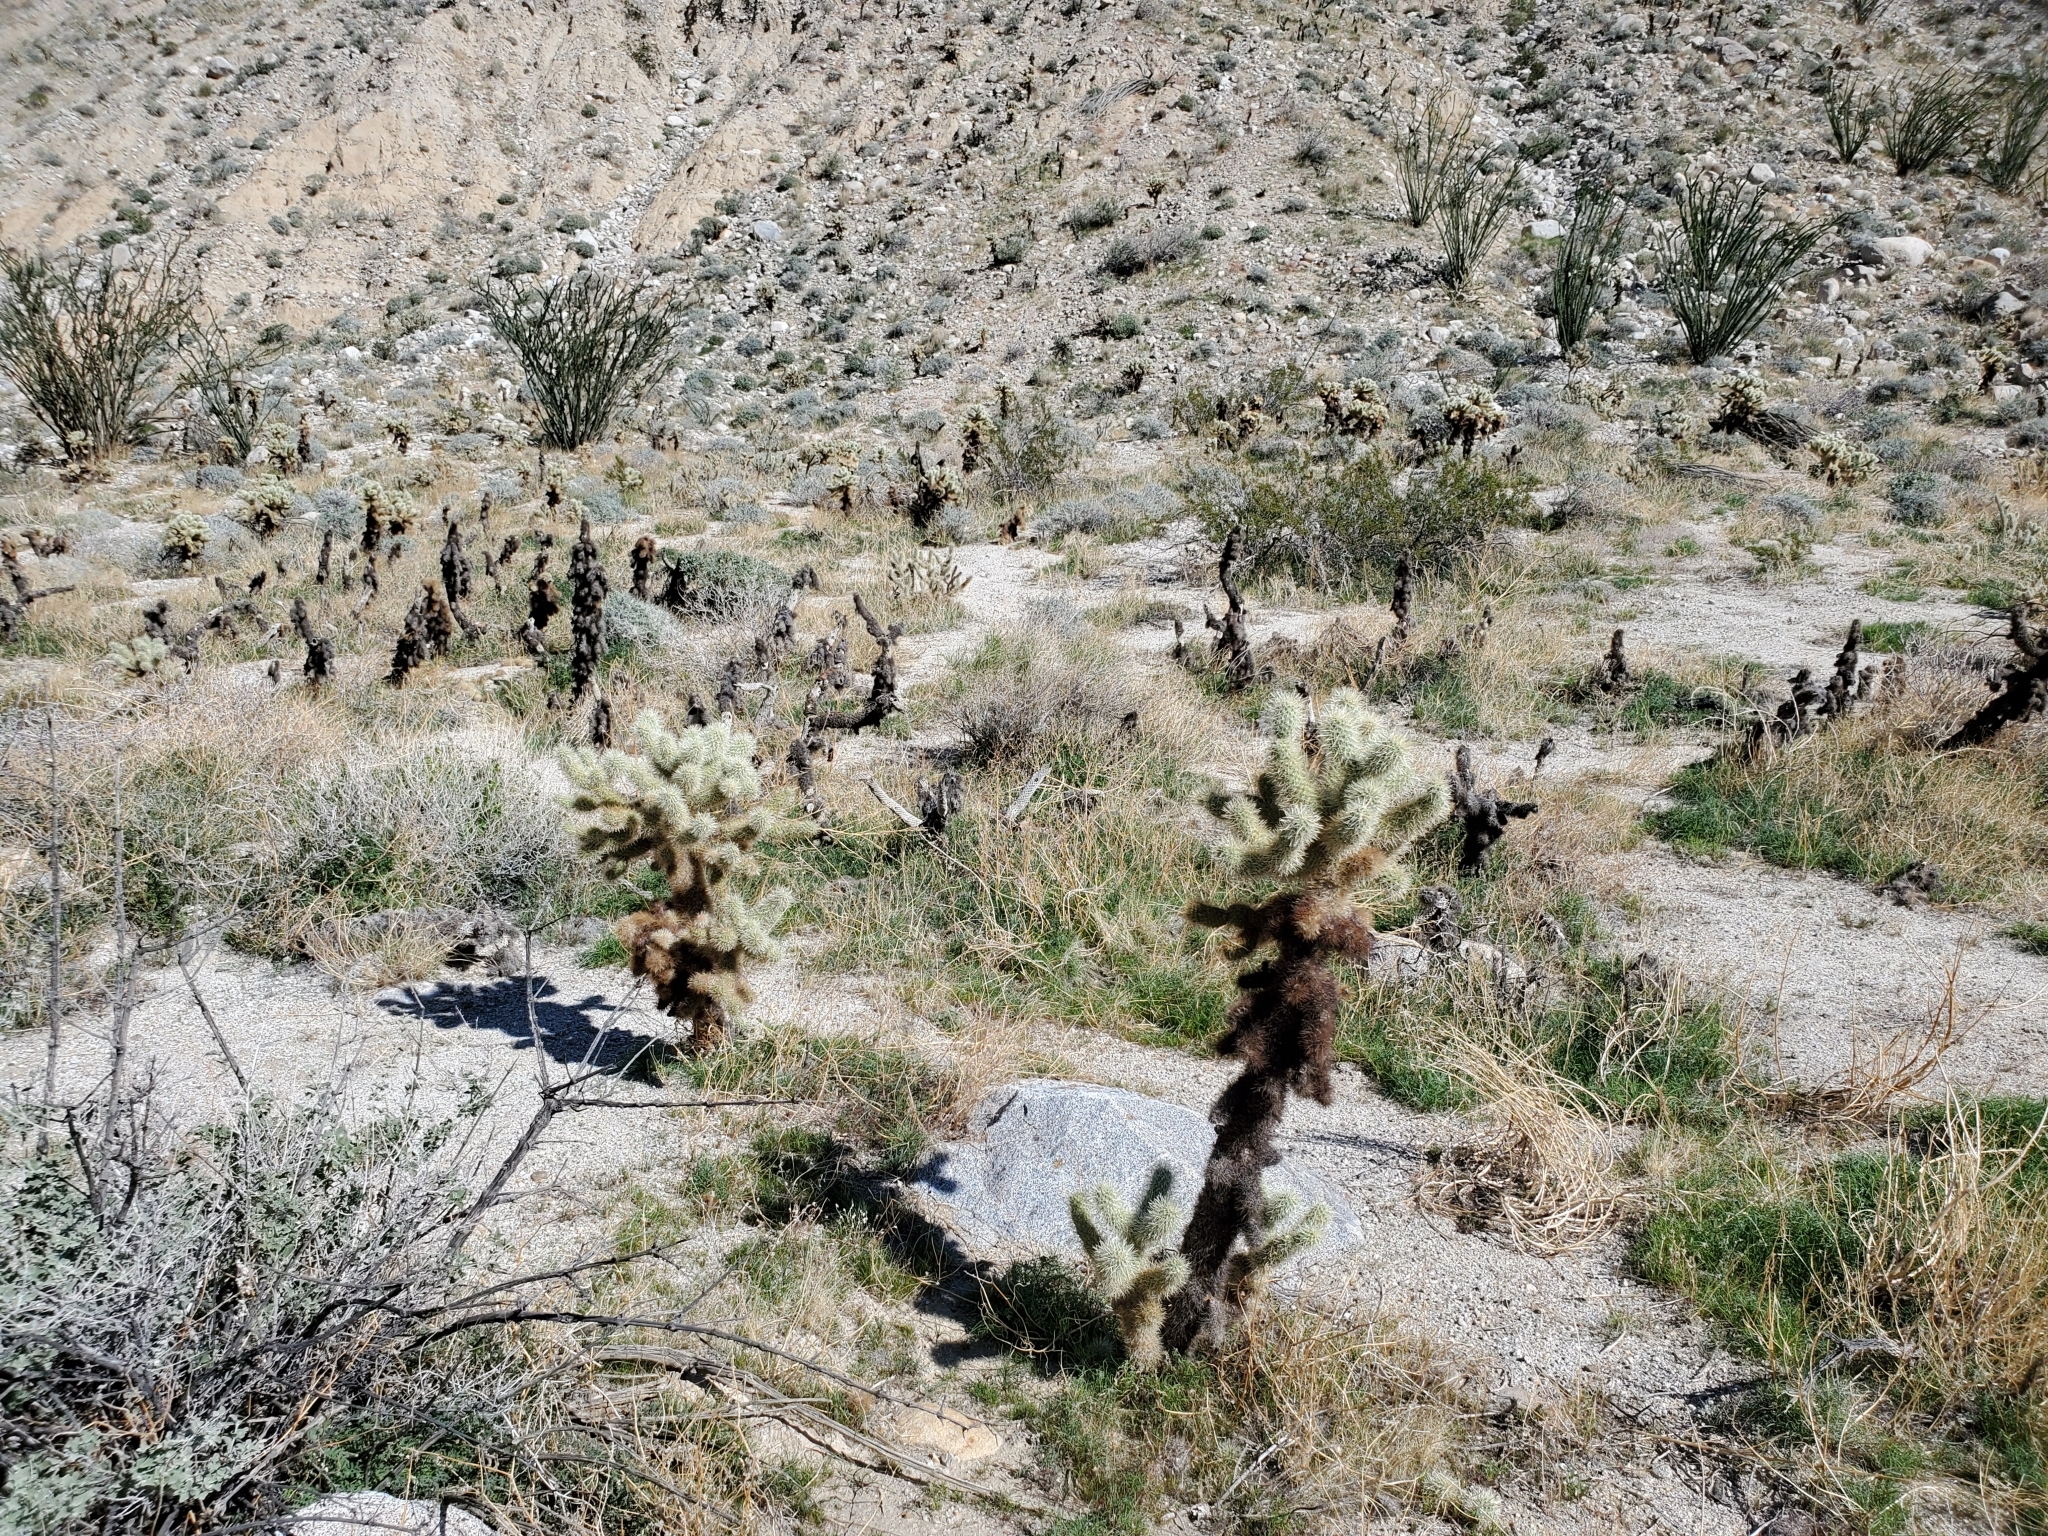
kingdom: Plantae
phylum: Tracheophyta
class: Magnoliopsida
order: Caryophyllales
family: Cactaceae
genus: Cylindropuntia
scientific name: Cylindropuntia fosbergii
